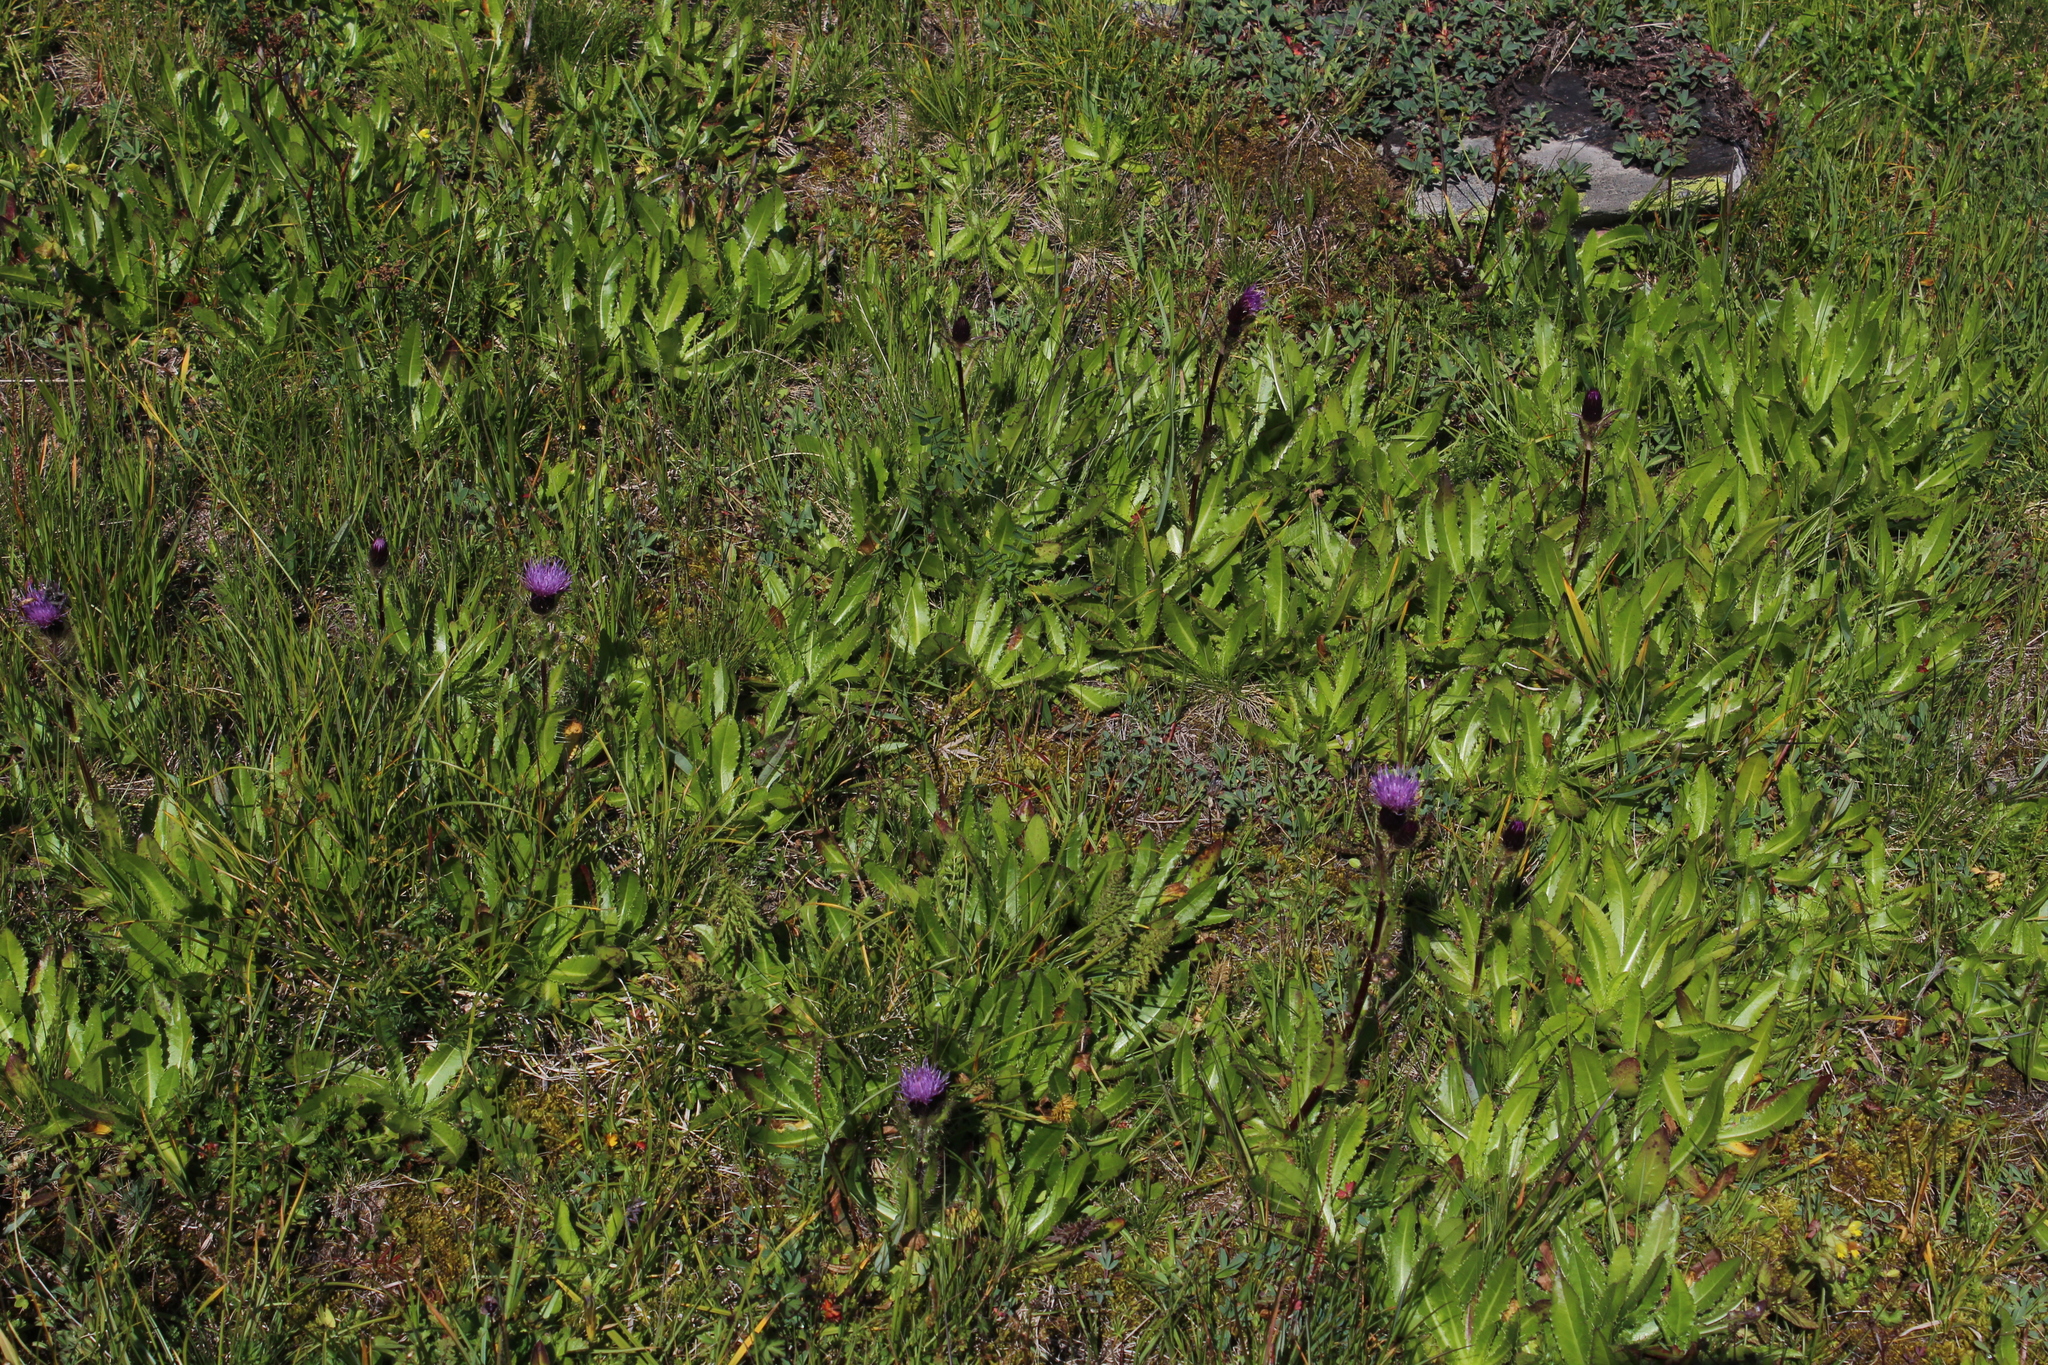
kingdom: Plantae
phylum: Tracheophyta
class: Magnoliopsida
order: Asterales
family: Asteraceae
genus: Cirsium
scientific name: Cirsium simplex
